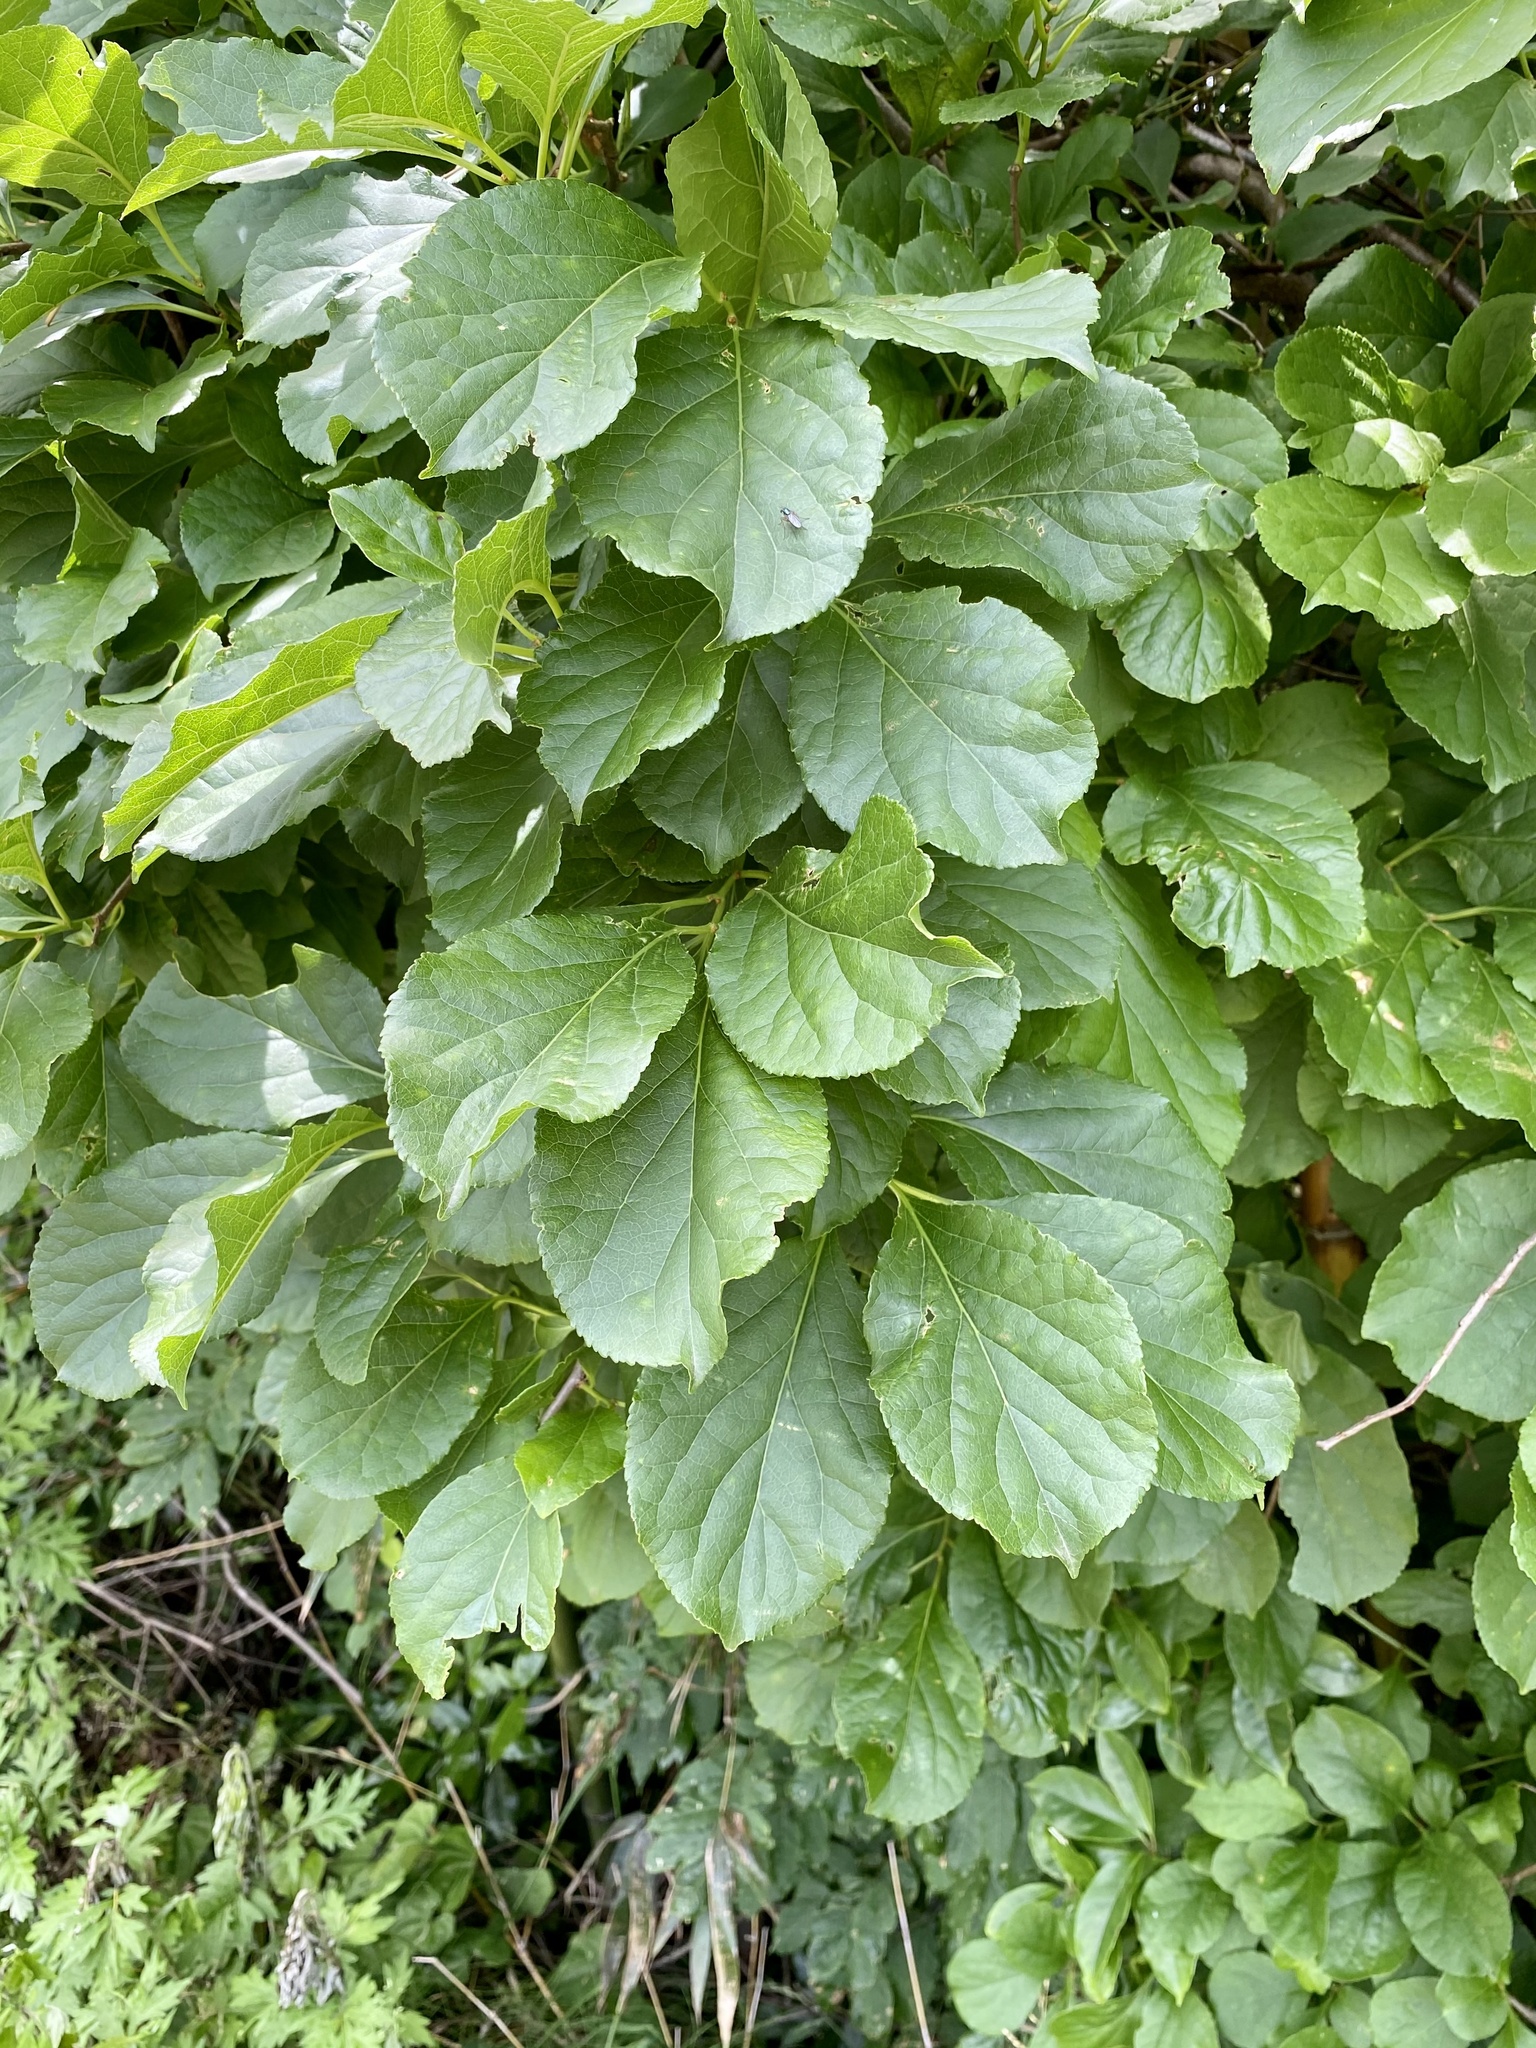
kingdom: Plantae
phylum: Tracheophyta
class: Magnoliopsida
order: Celastrales
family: Celastraceae
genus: Celastrus
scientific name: Celastrus orbiculatus
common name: Oriental bittersweet
